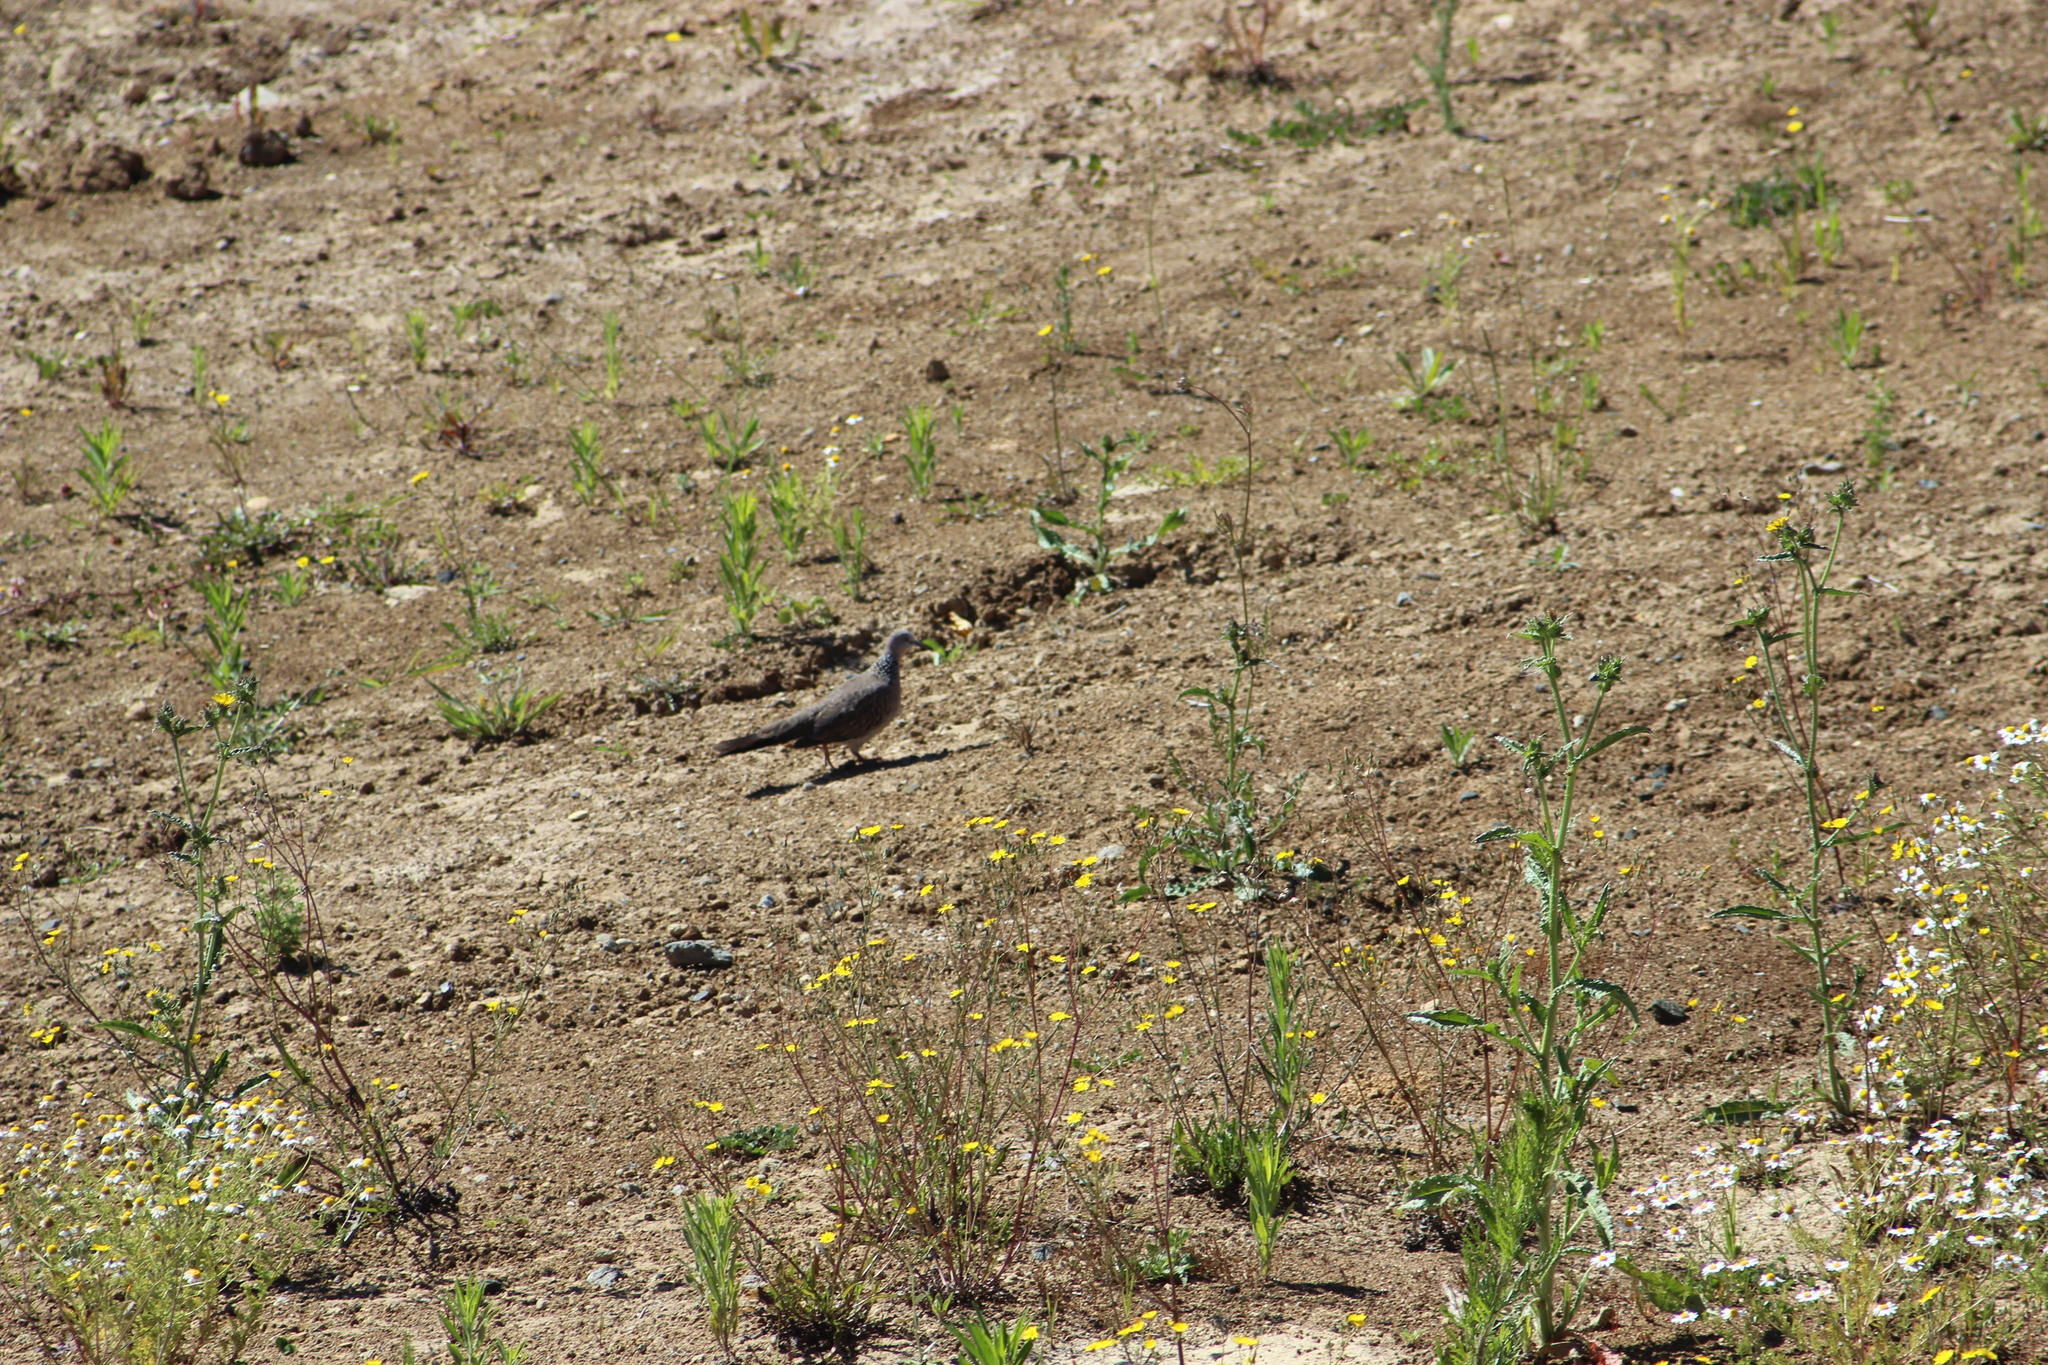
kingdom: Animalia
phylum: Chordata
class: Aves
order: Columbiformes
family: Columbidae
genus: Spilopelia
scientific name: Spilopelia chinensis
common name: Spotted dove
